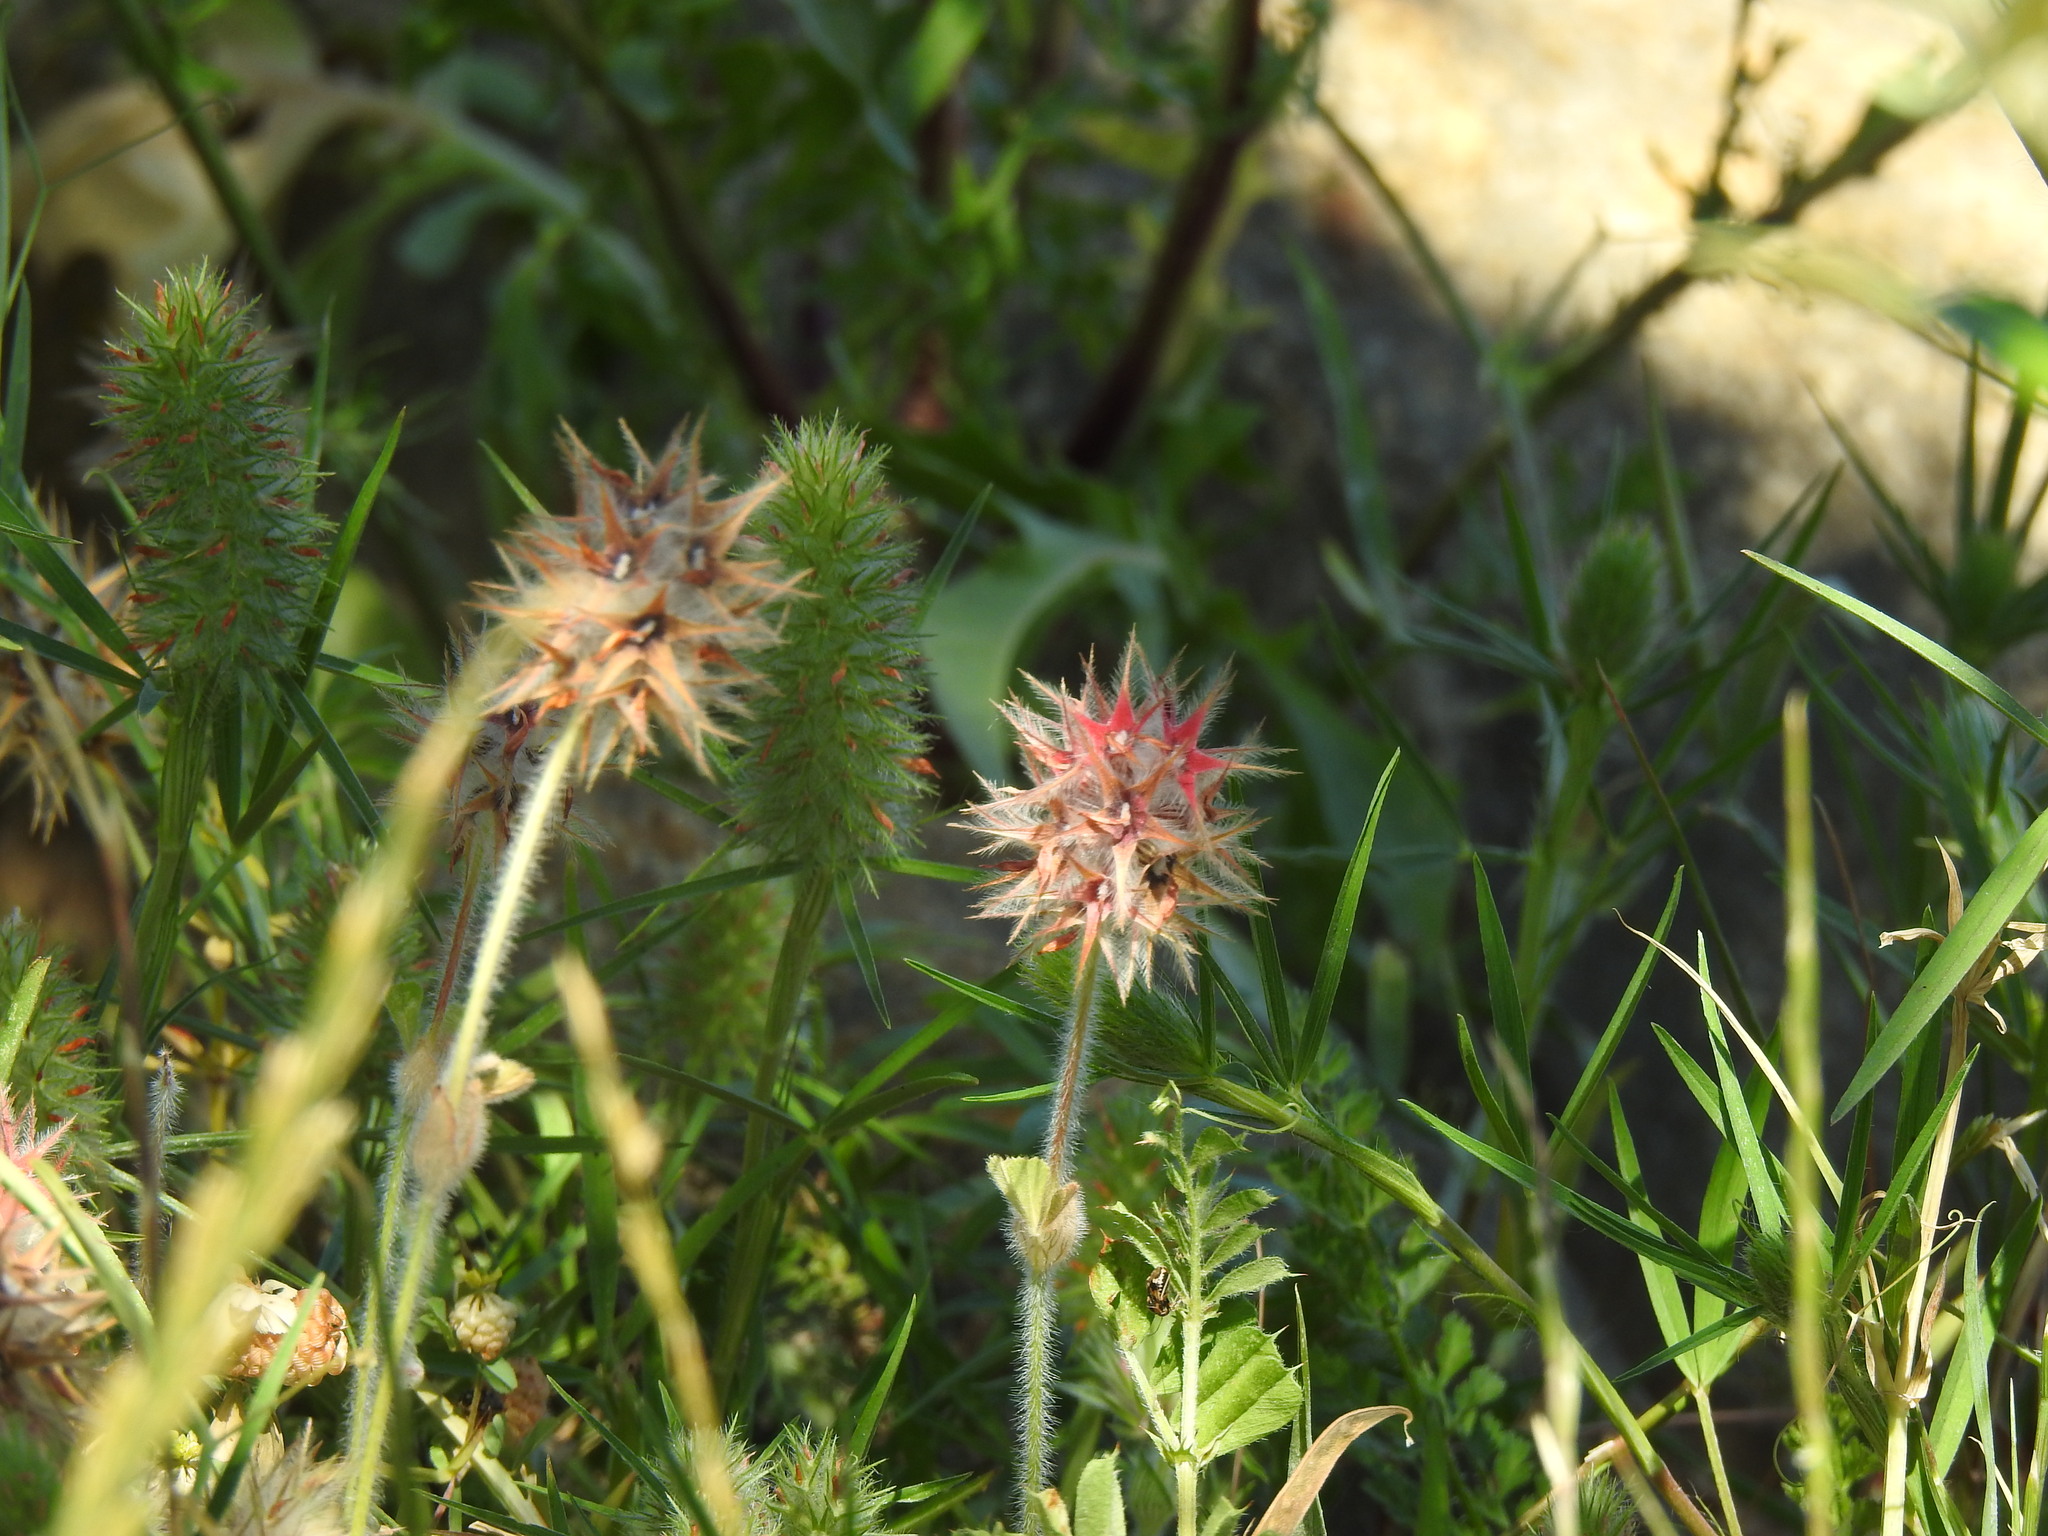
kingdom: Plantae
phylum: Tracheophyta
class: Magnoliopsida
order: Fabales
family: Fabaceae
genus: Trifolium
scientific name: Trifolium stellatum
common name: Starry clover
